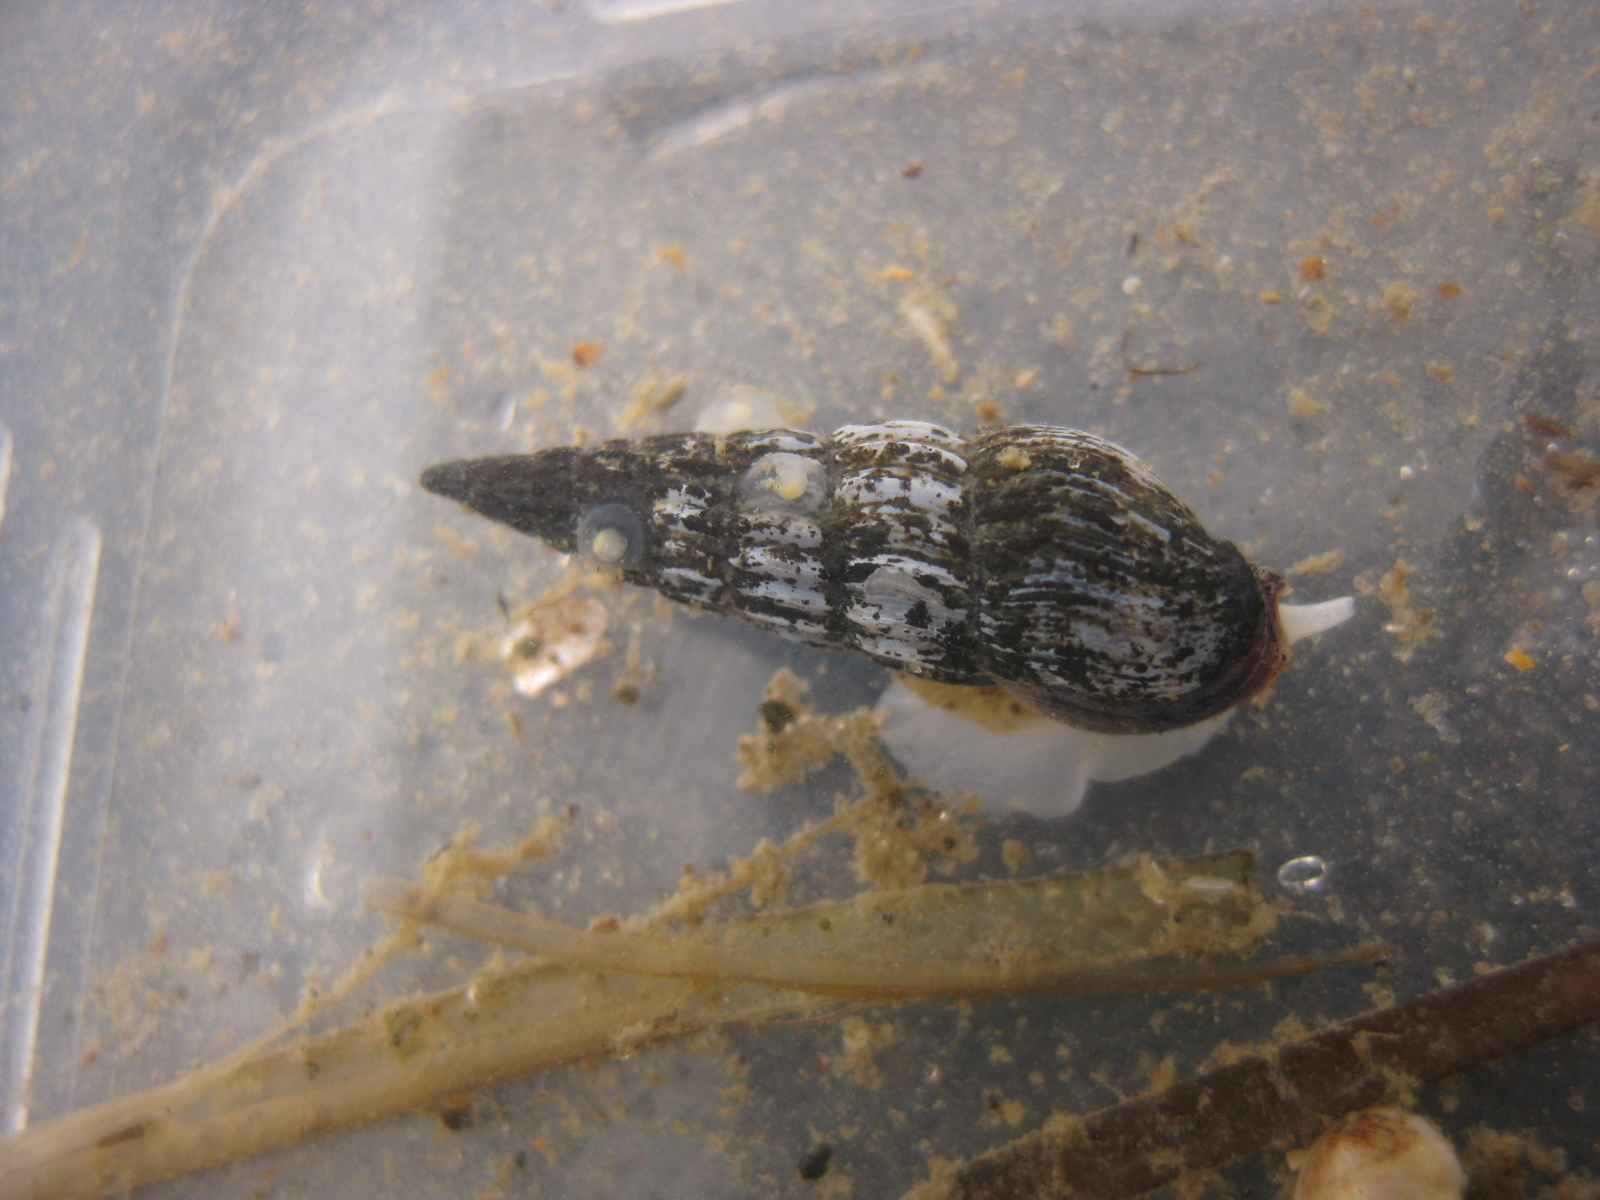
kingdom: Animalia
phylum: Mollusca
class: Gastropoda
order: Neogastropoda
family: Terebridae
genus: Duplicaria
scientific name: Duplicaria tristis
